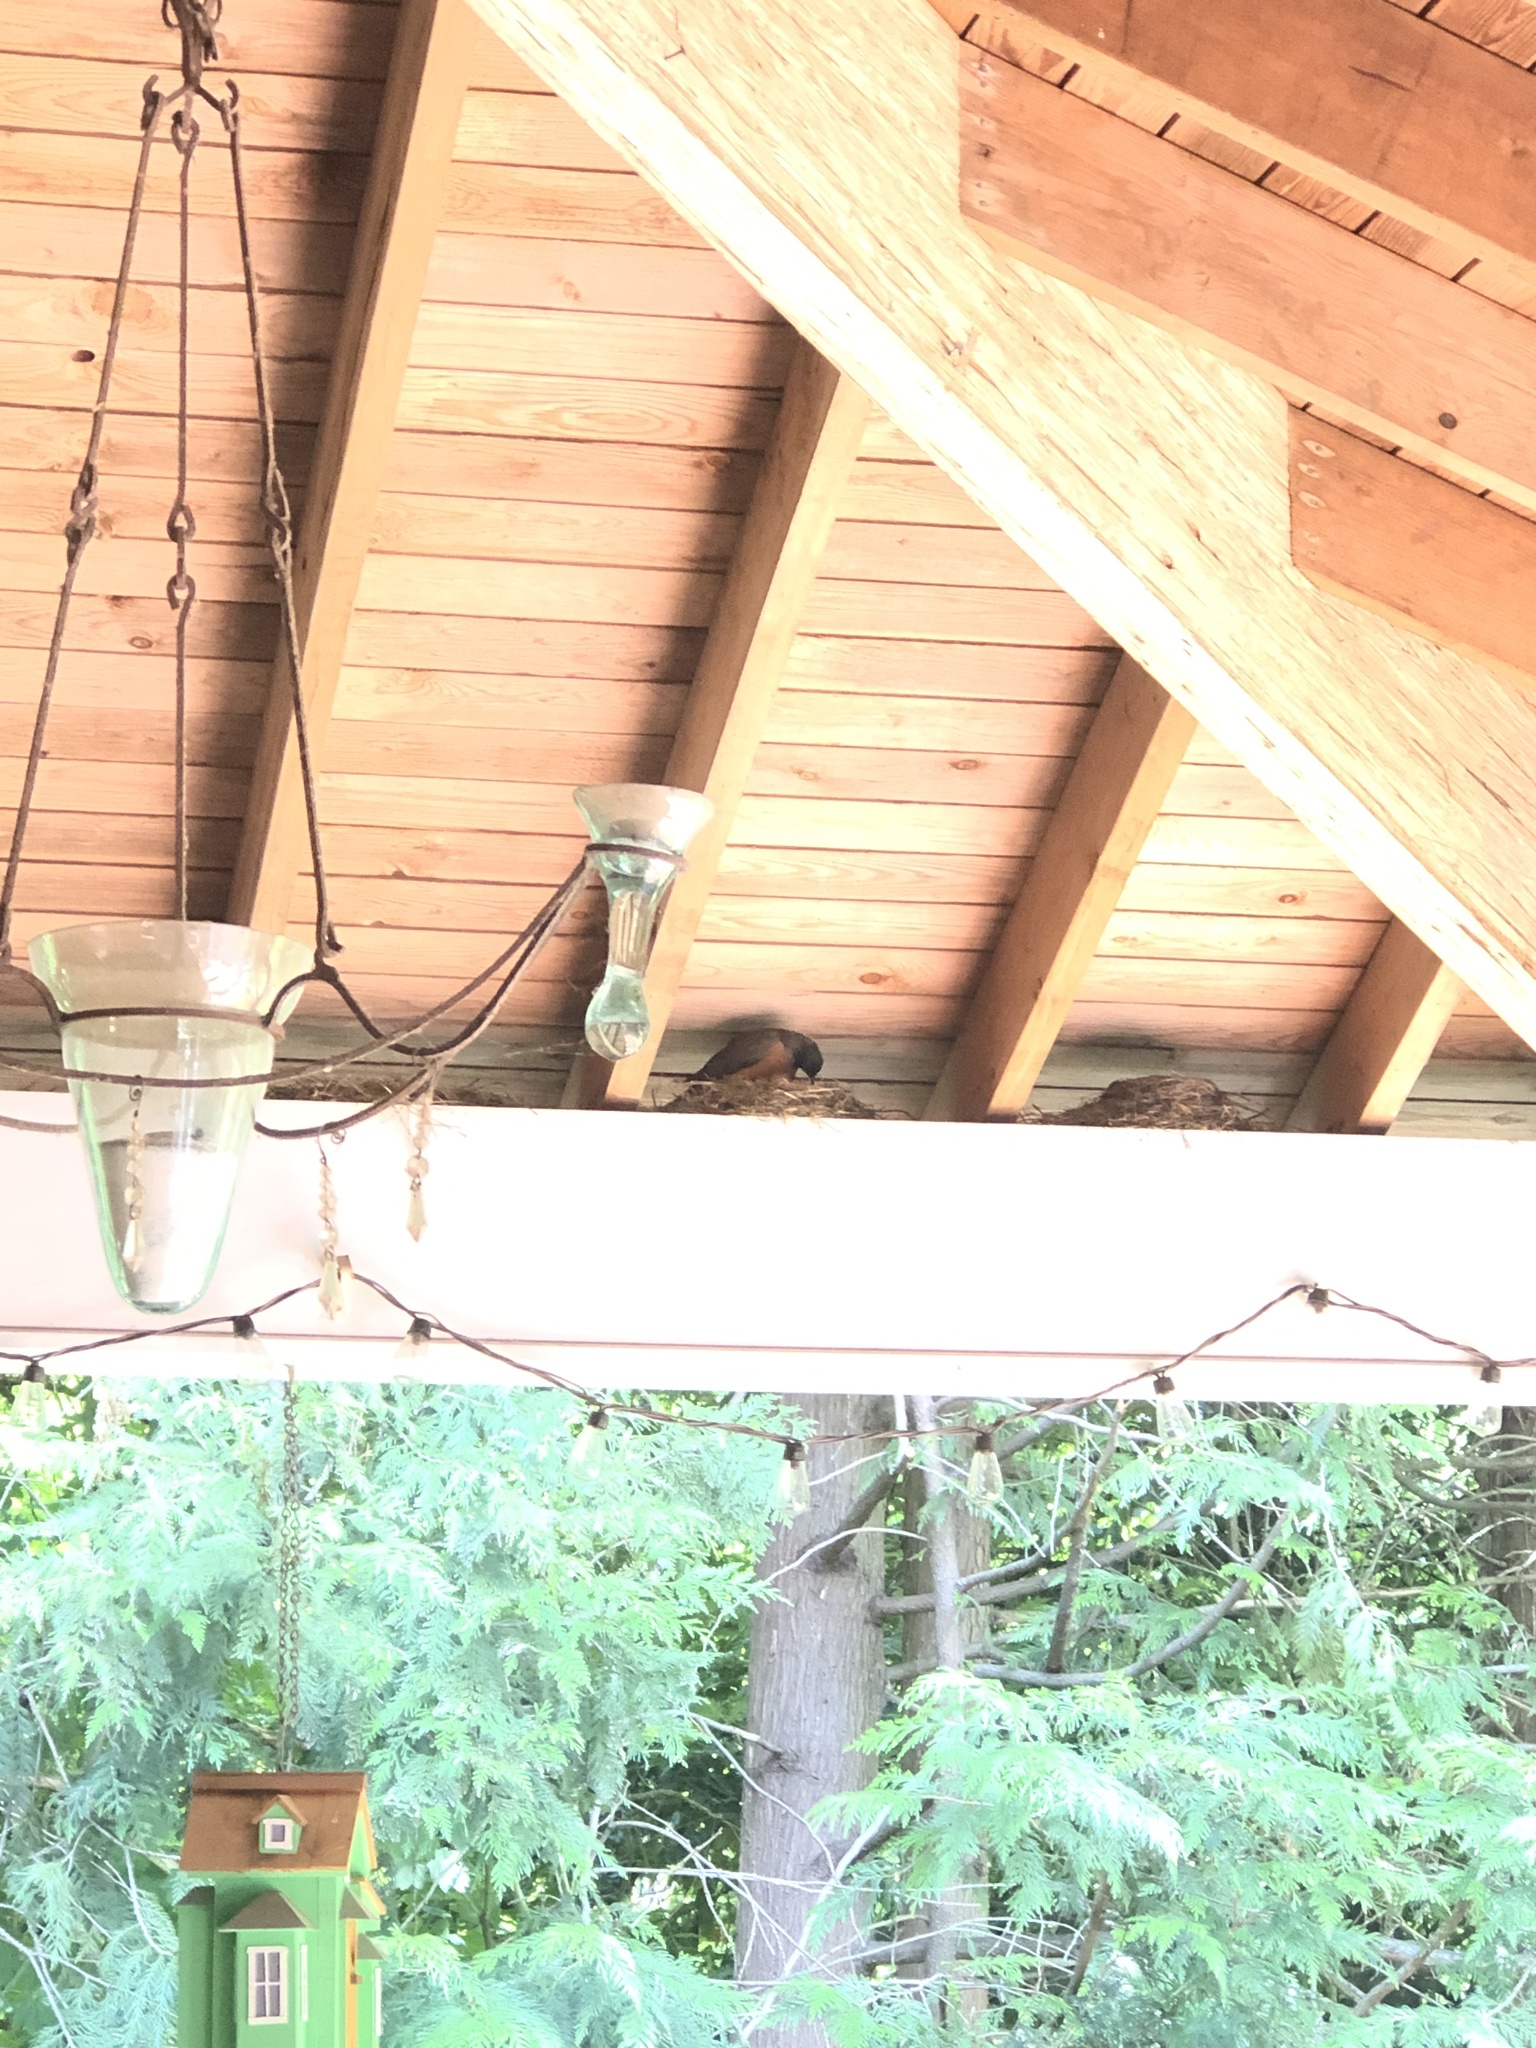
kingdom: Animalia
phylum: Chordata
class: Aves
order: Passeriformes
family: Turdidae
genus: Turdus
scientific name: Turdus migratorius
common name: American robin
